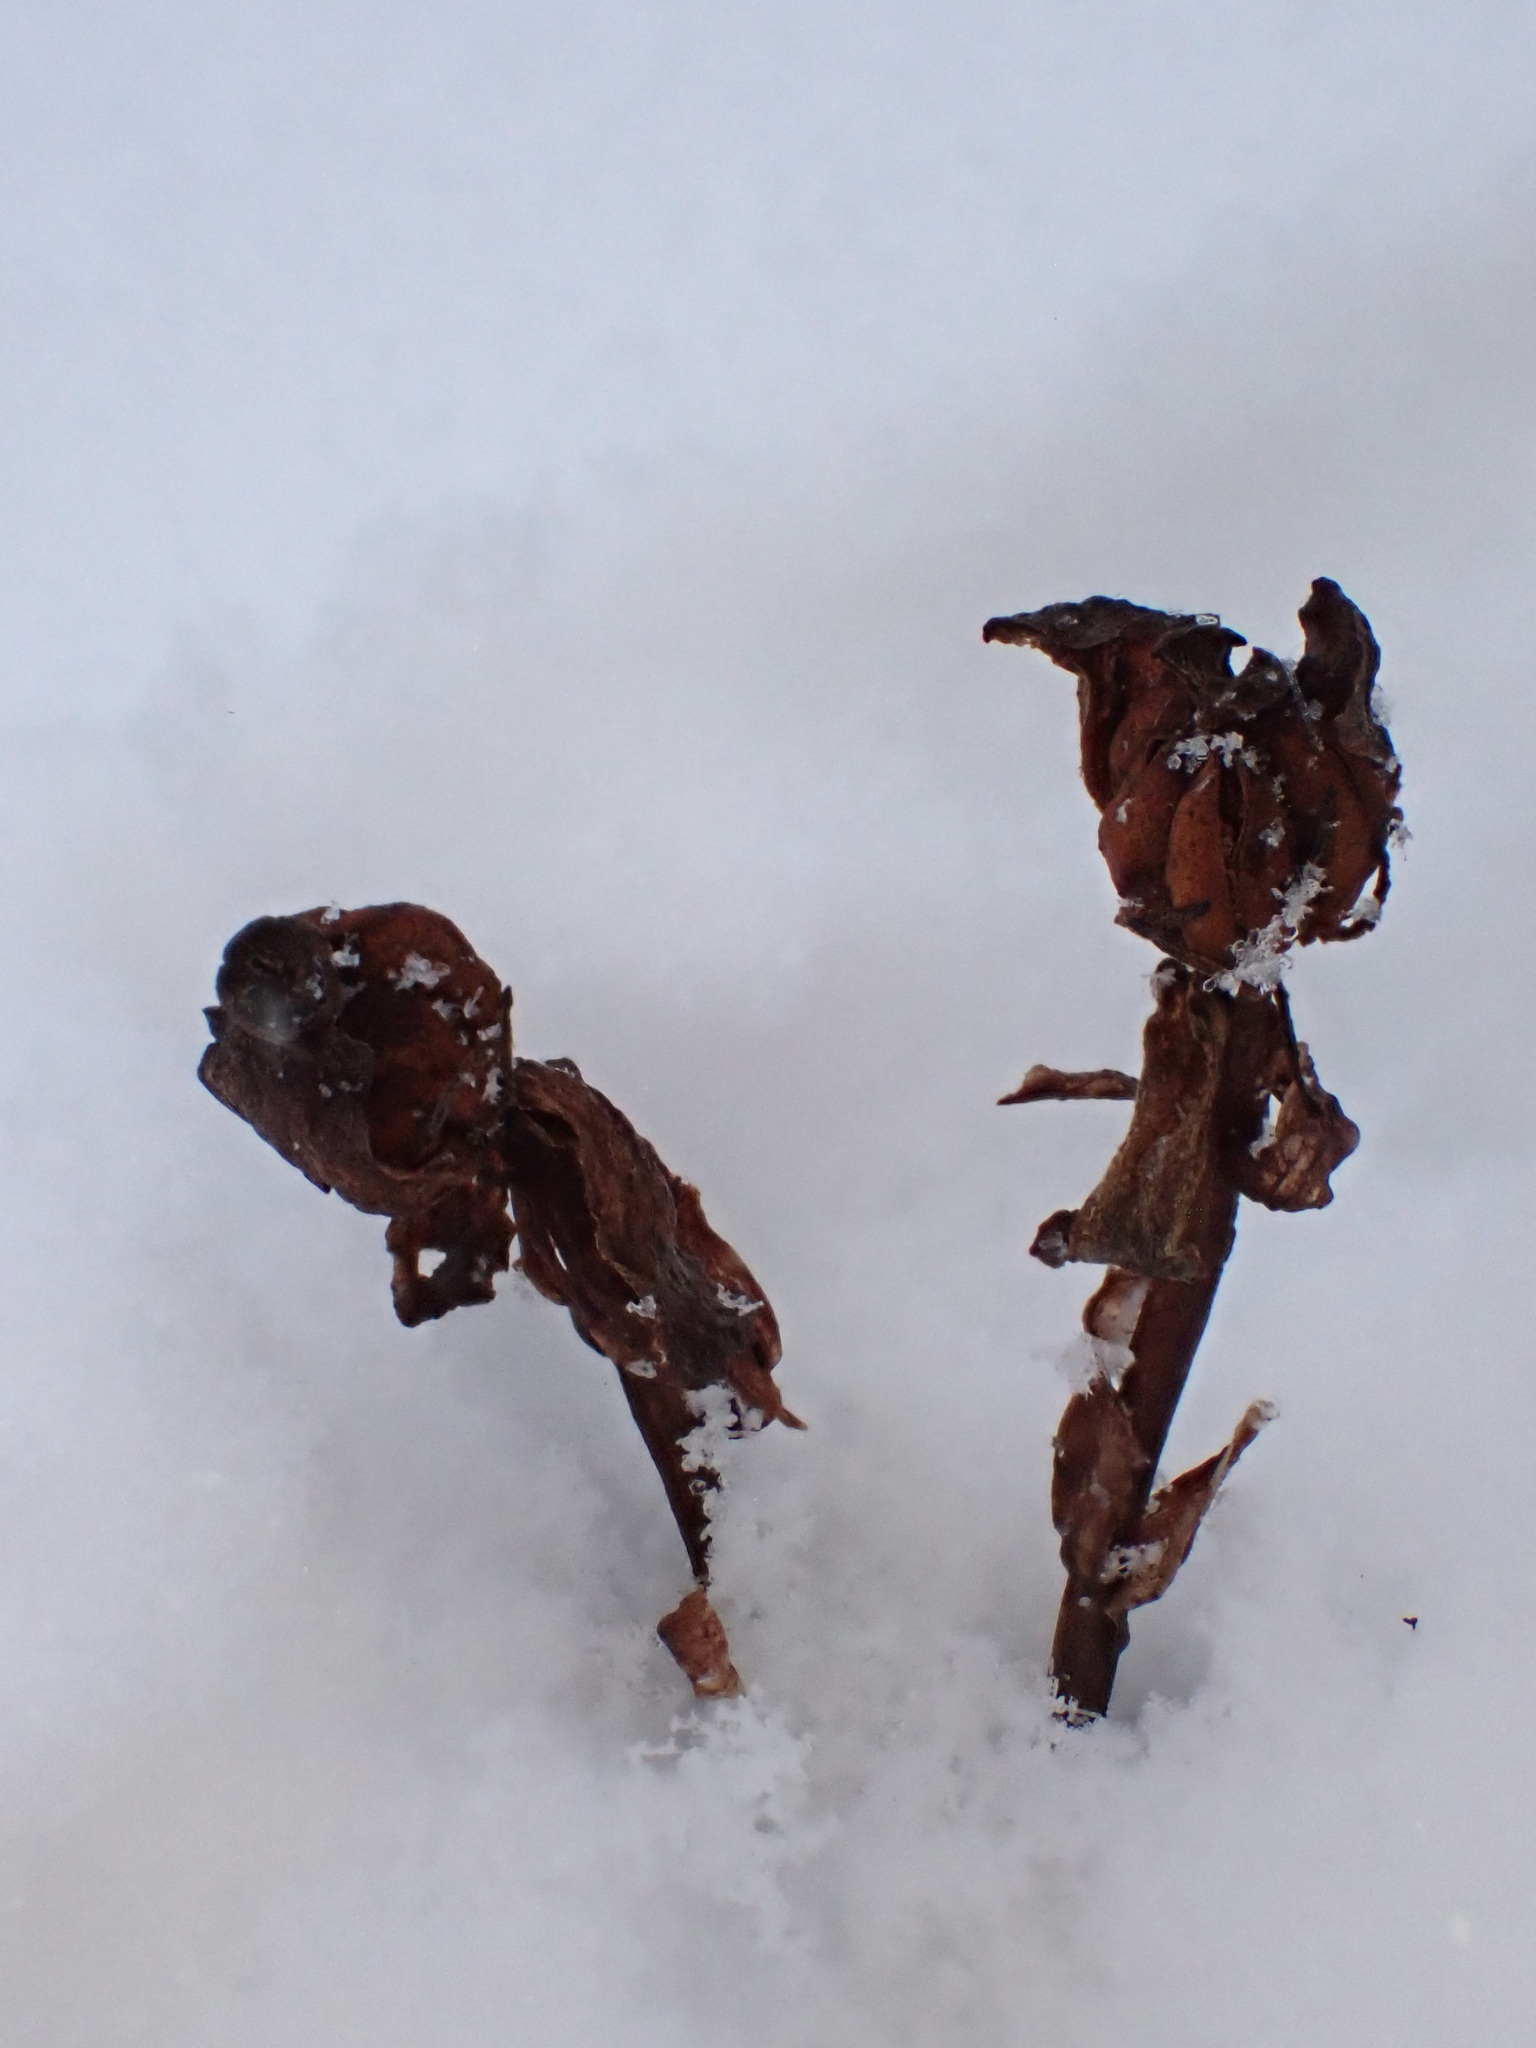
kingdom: Plantae
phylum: Tracheophyta
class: Magnoliopsida
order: Ericales
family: Ericaceae
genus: Monotropa
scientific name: Monotropa uniflora
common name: Convulsion root
